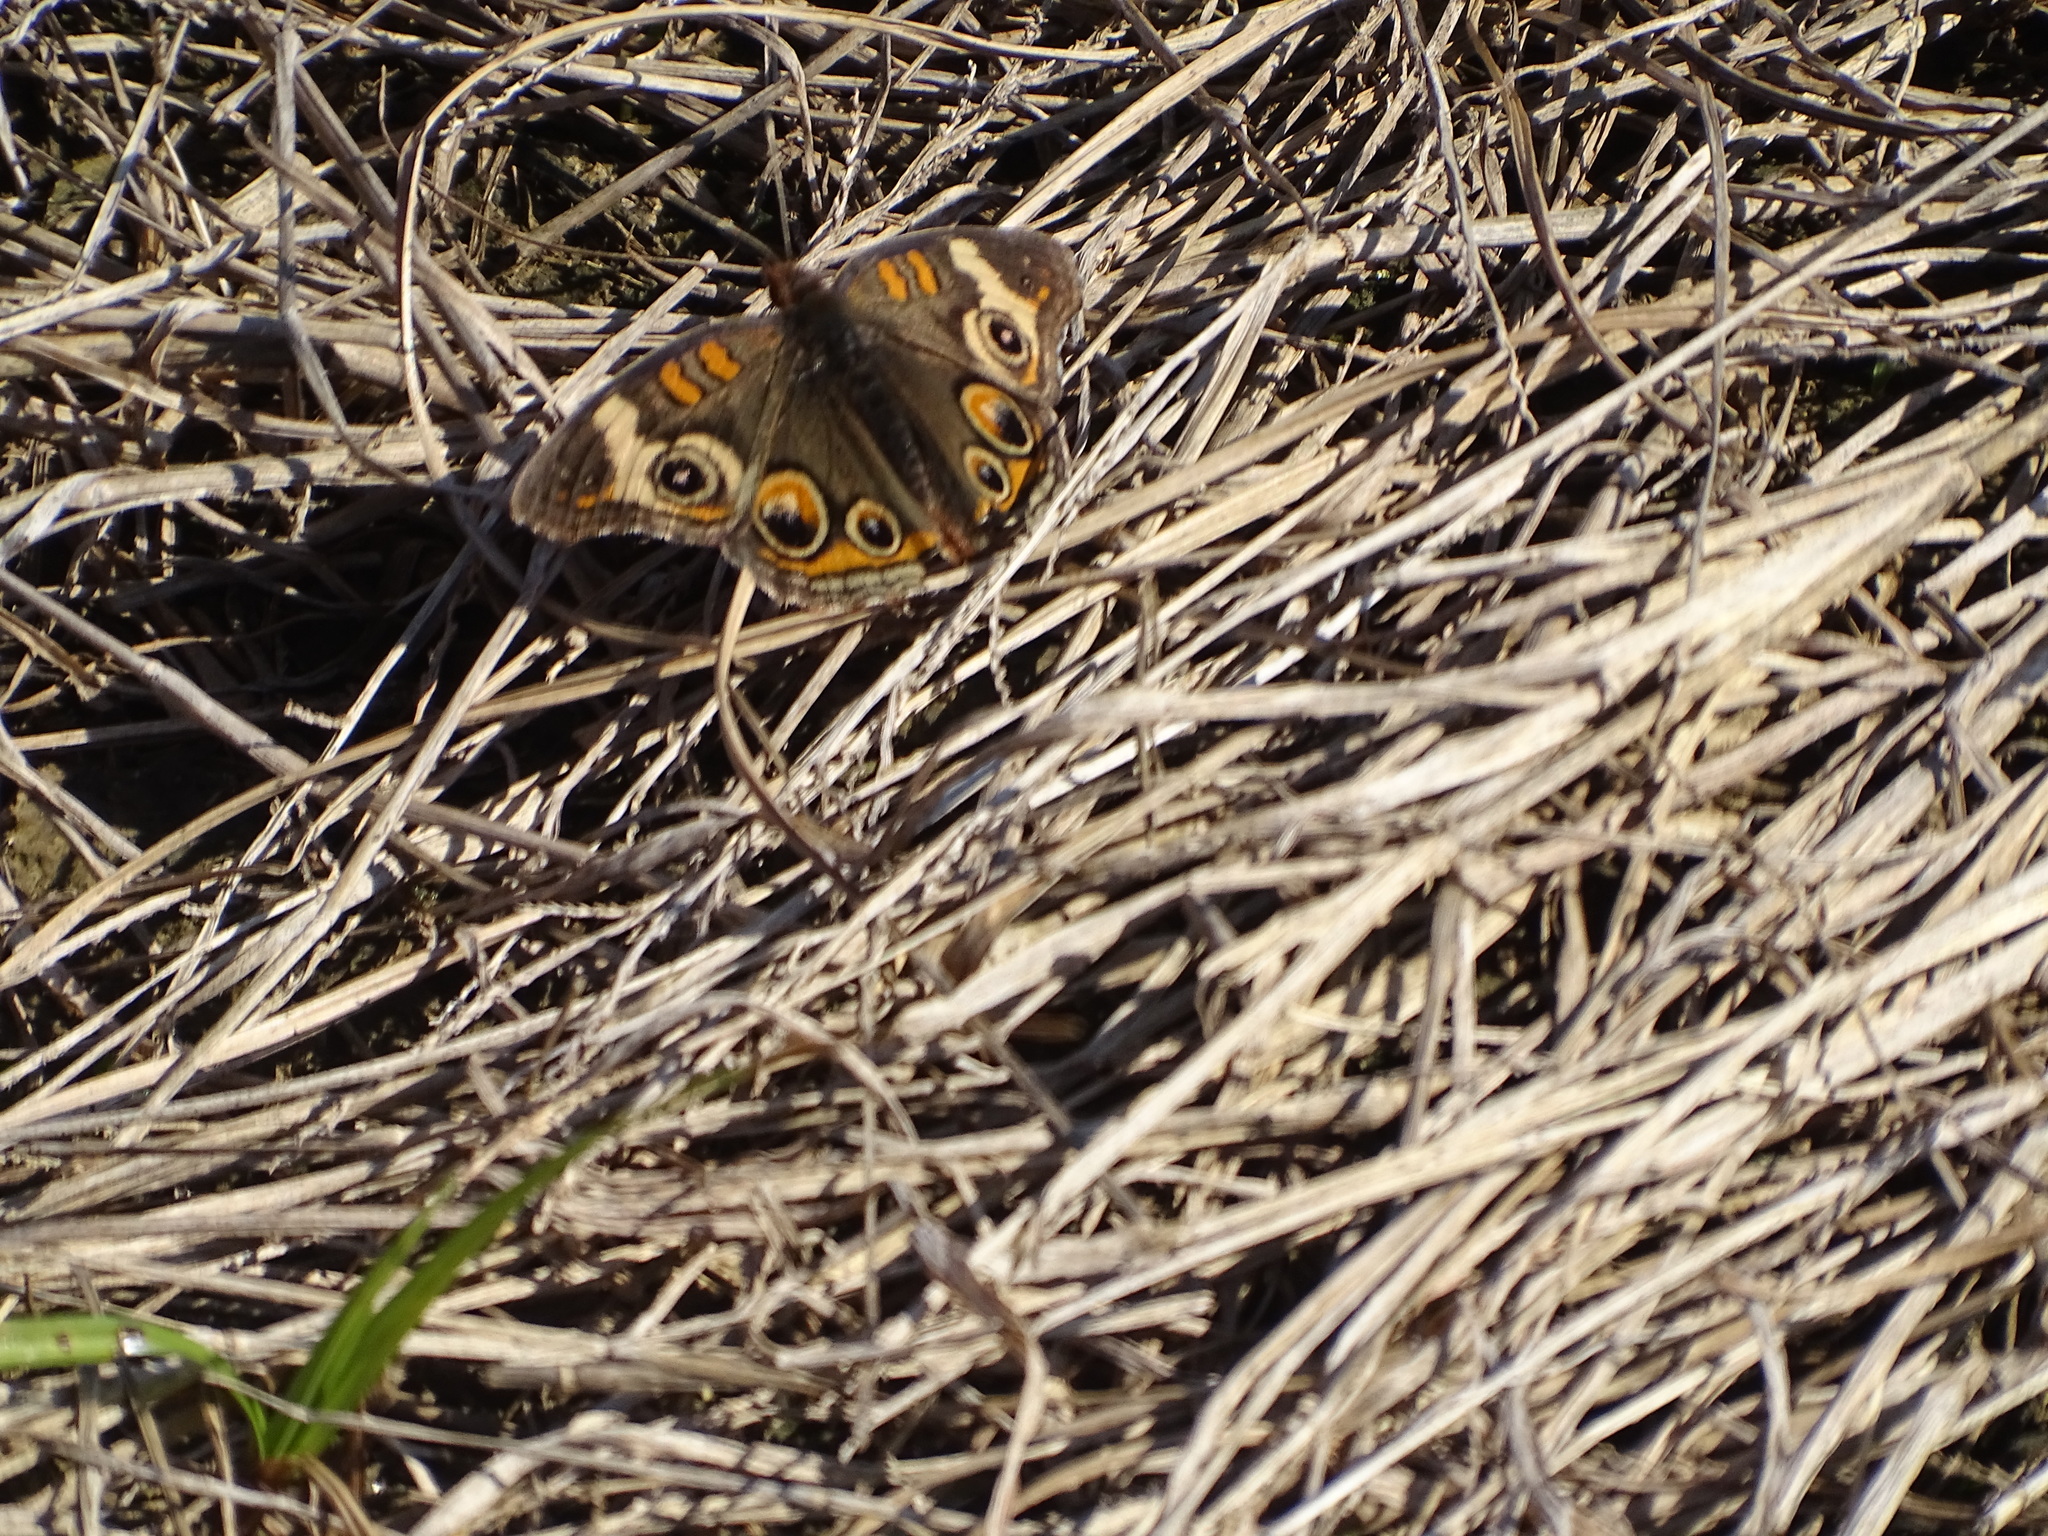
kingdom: Animalia
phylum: Arthropoda
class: Insecta
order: Lepidoptera
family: Nymphalidae
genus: Junonia
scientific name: Junonia coenia
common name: Common buckeye
